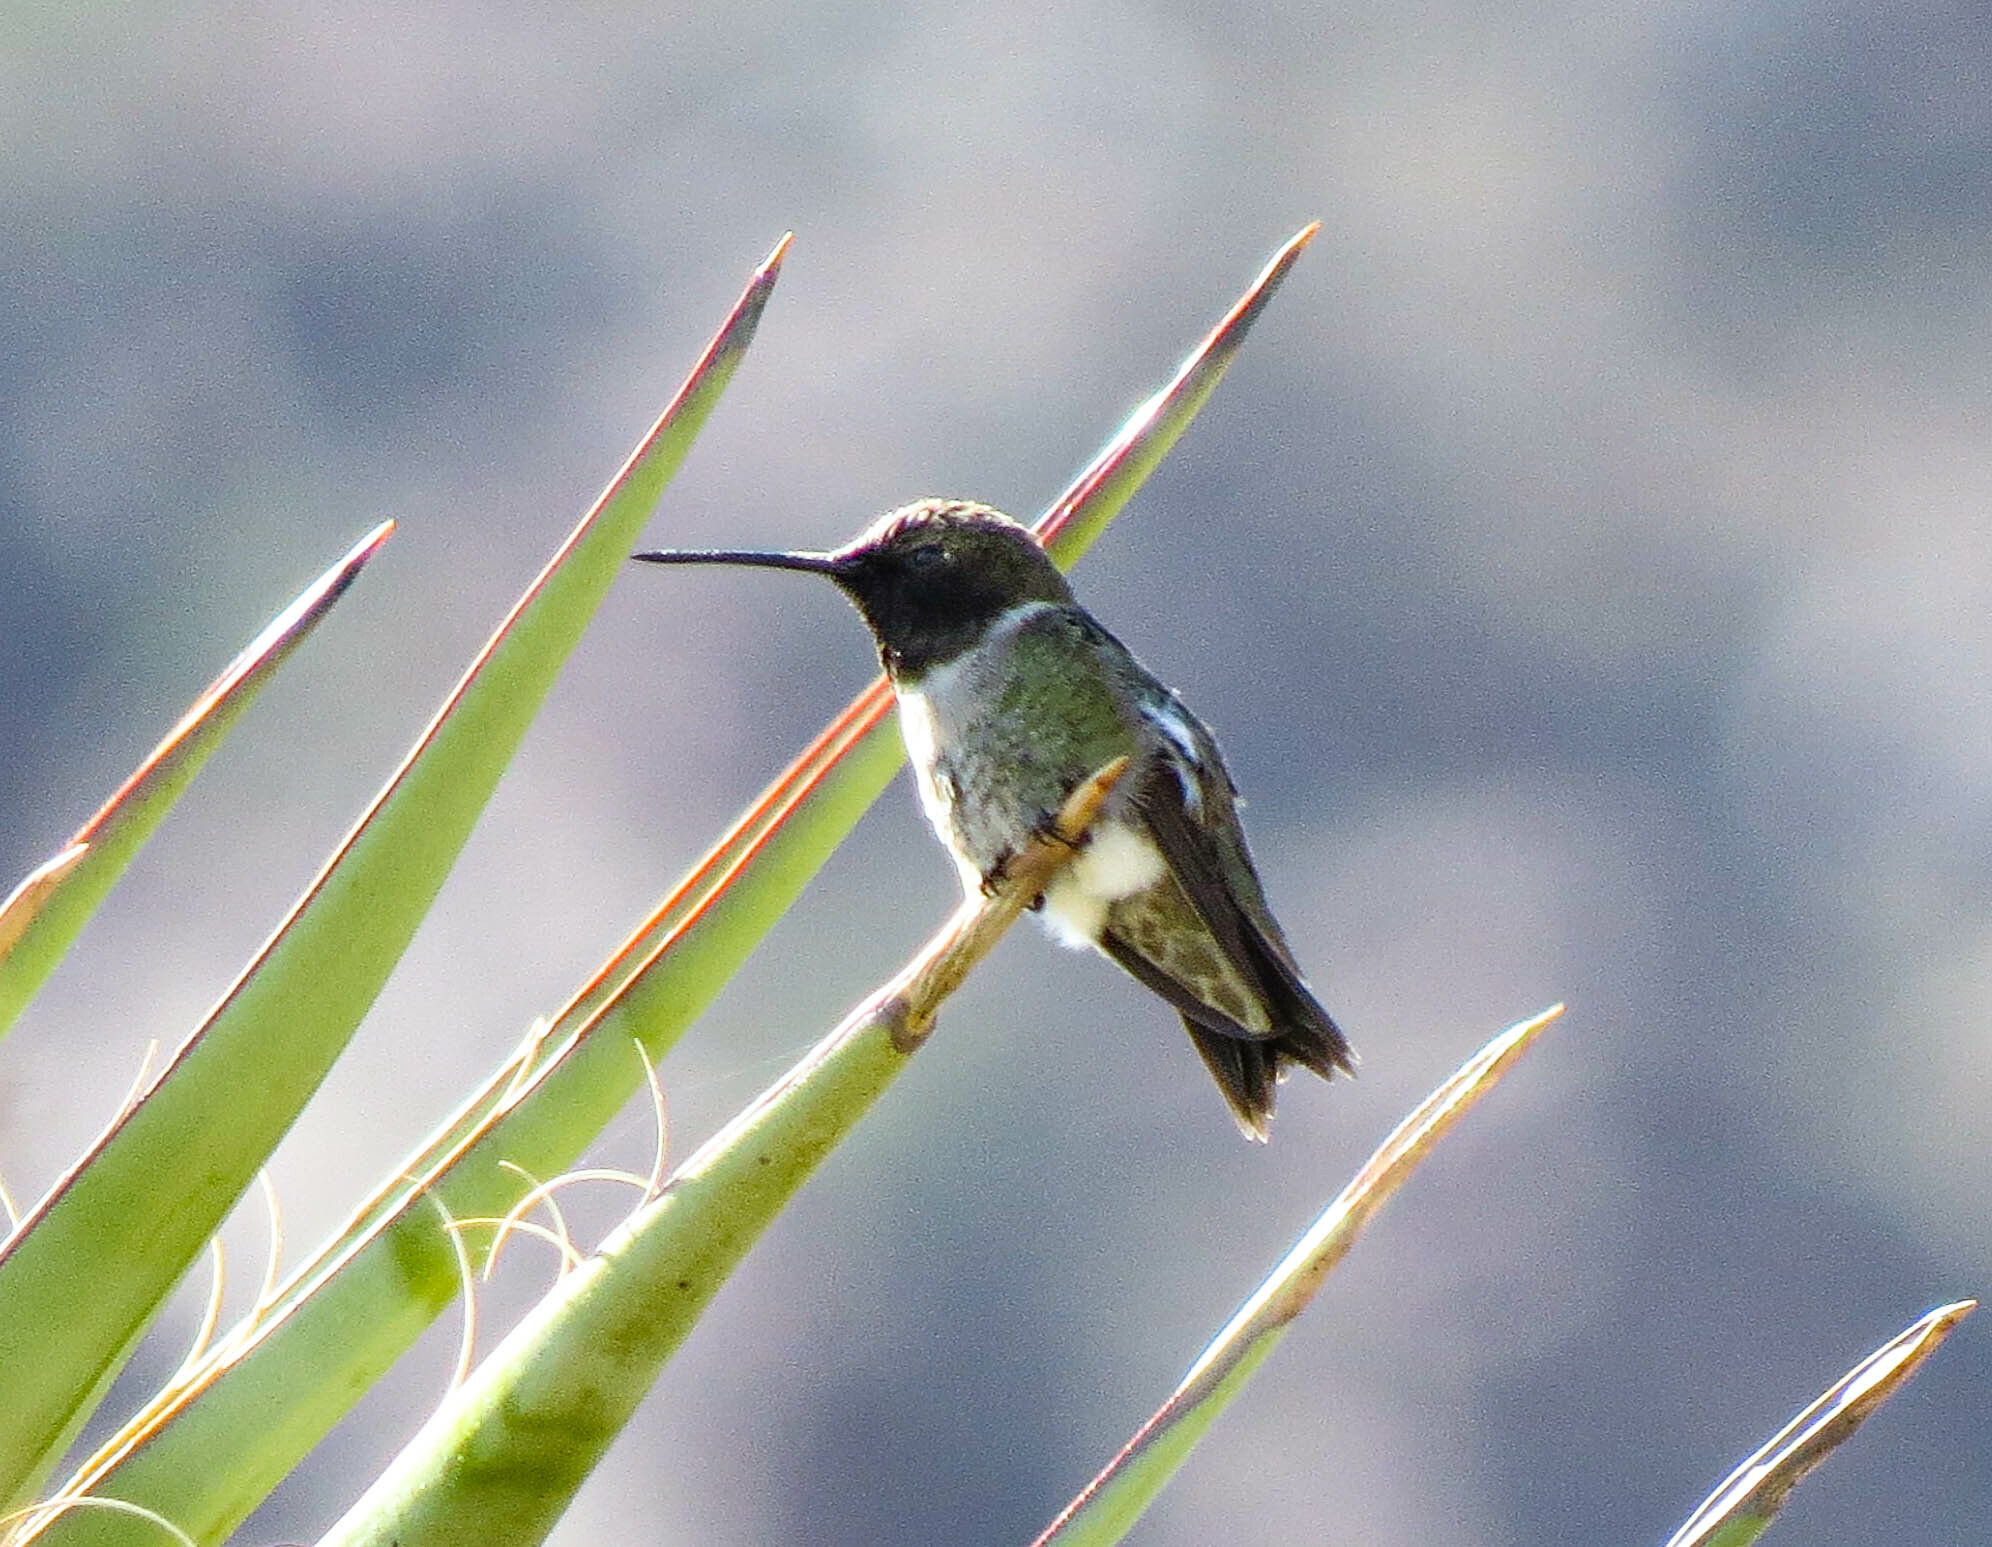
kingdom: Animalia
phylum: Chordata
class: Aves
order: Apodiformes
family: Trochilidae
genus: Archilochus
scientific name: Archilochus alexandri
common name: Black-chinned hummingbird
